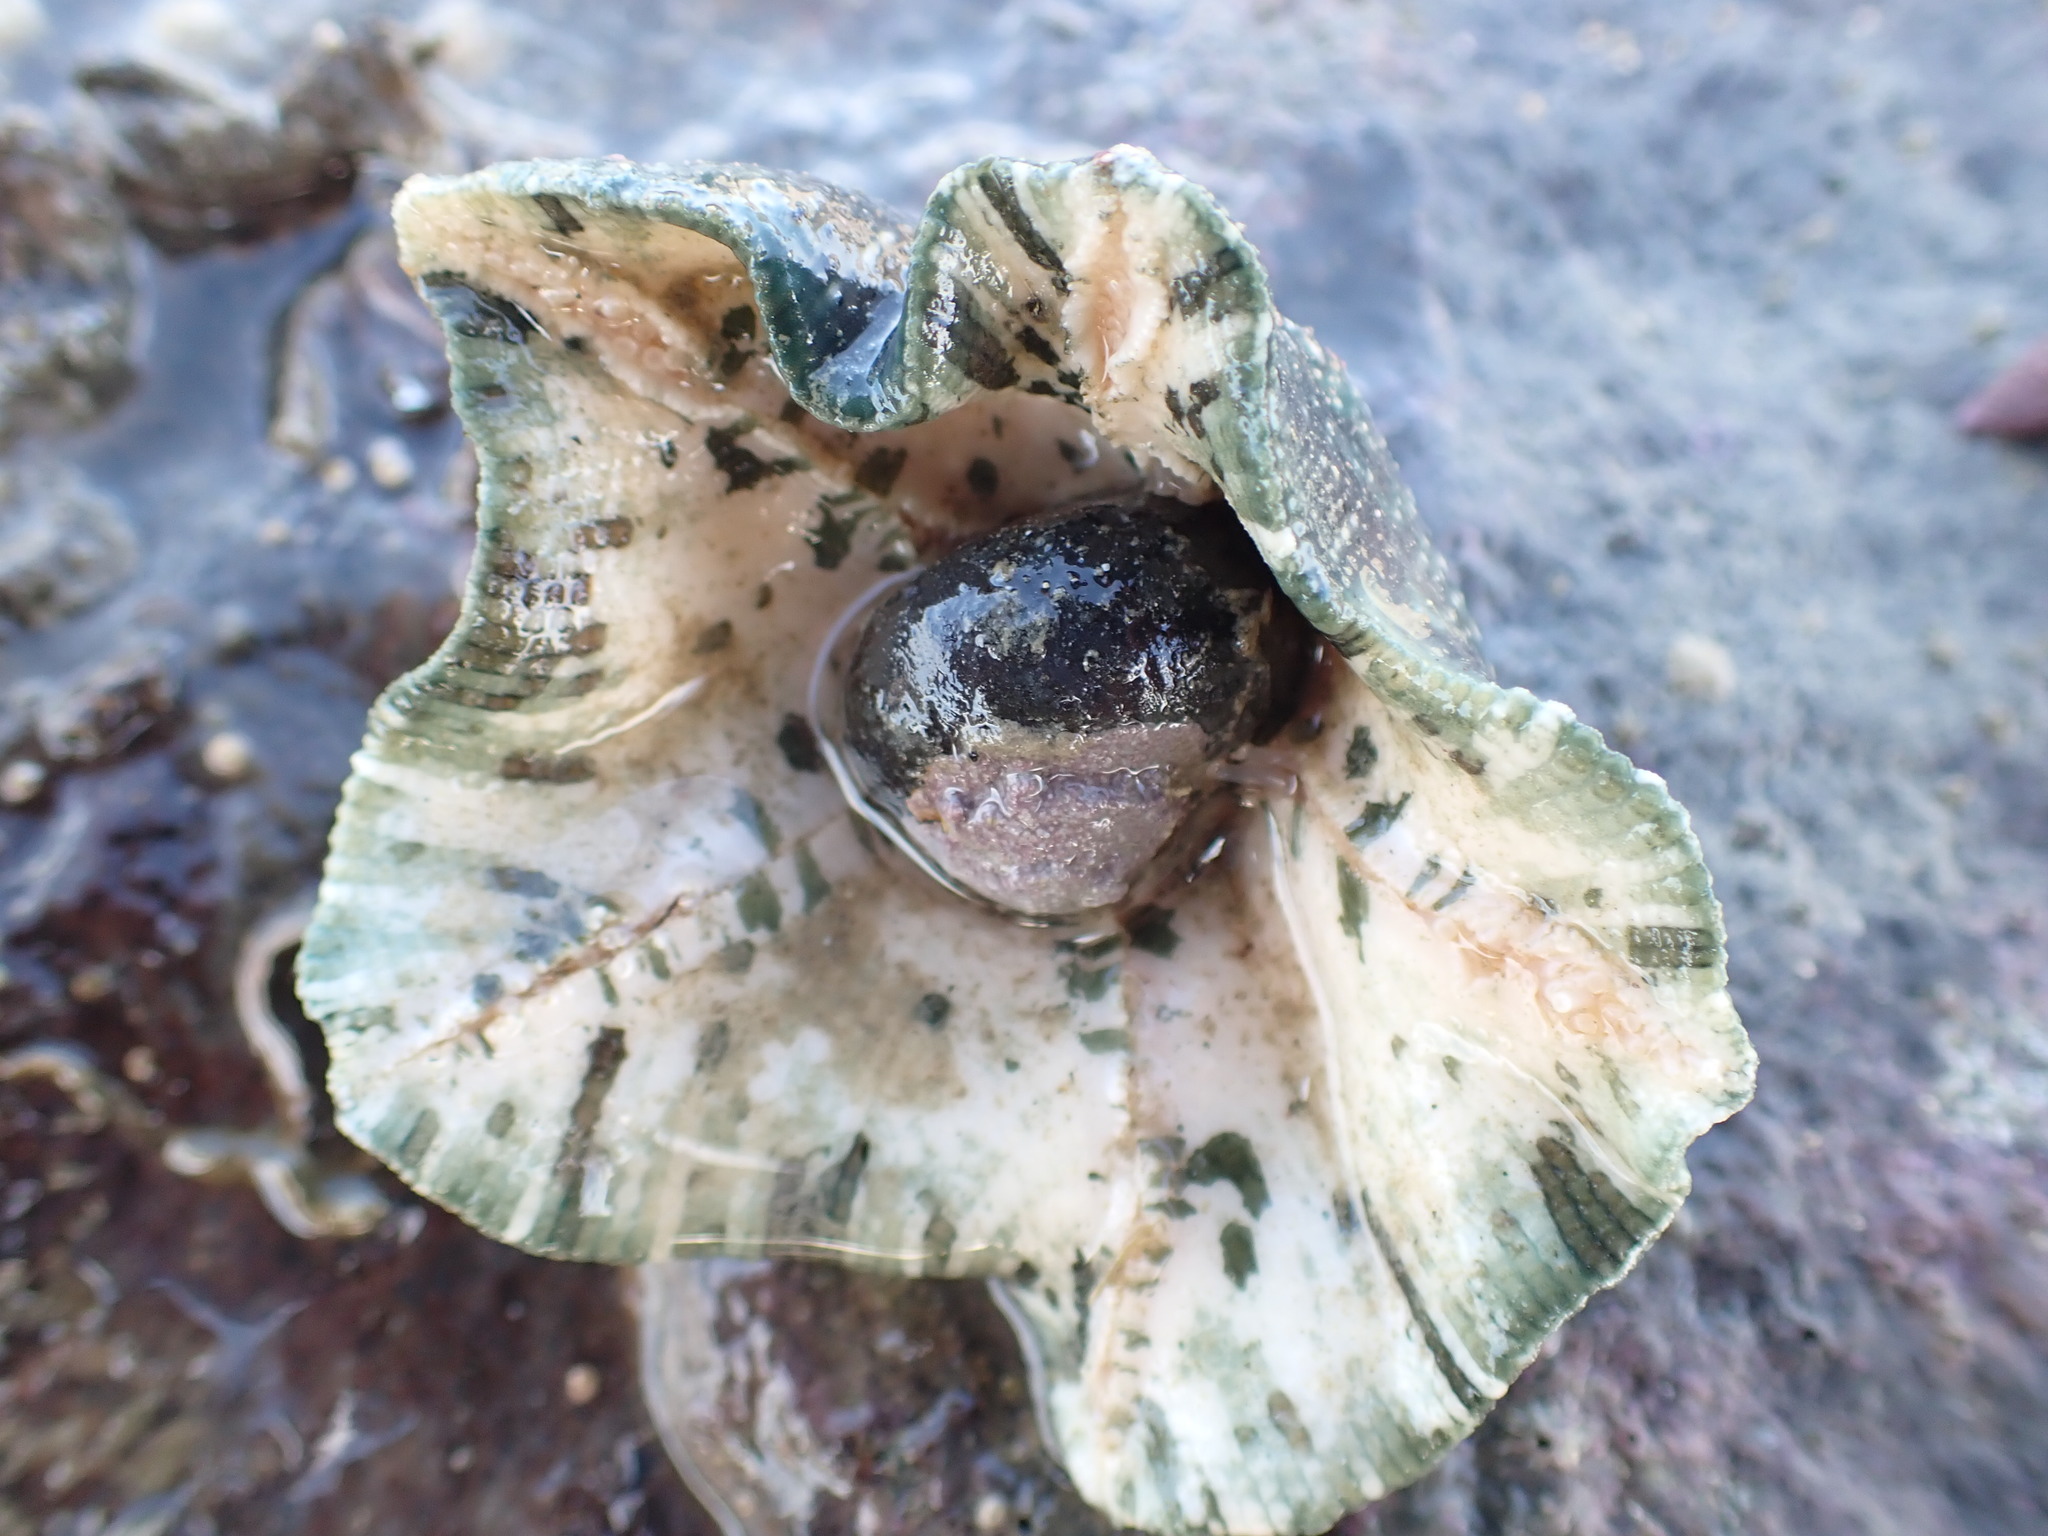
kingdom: Animalia
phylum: Echinodermata
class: Asteroidea
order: Valvatida
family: Asterinidae
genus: Stegnaster
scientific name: Stegnaster inflatus
